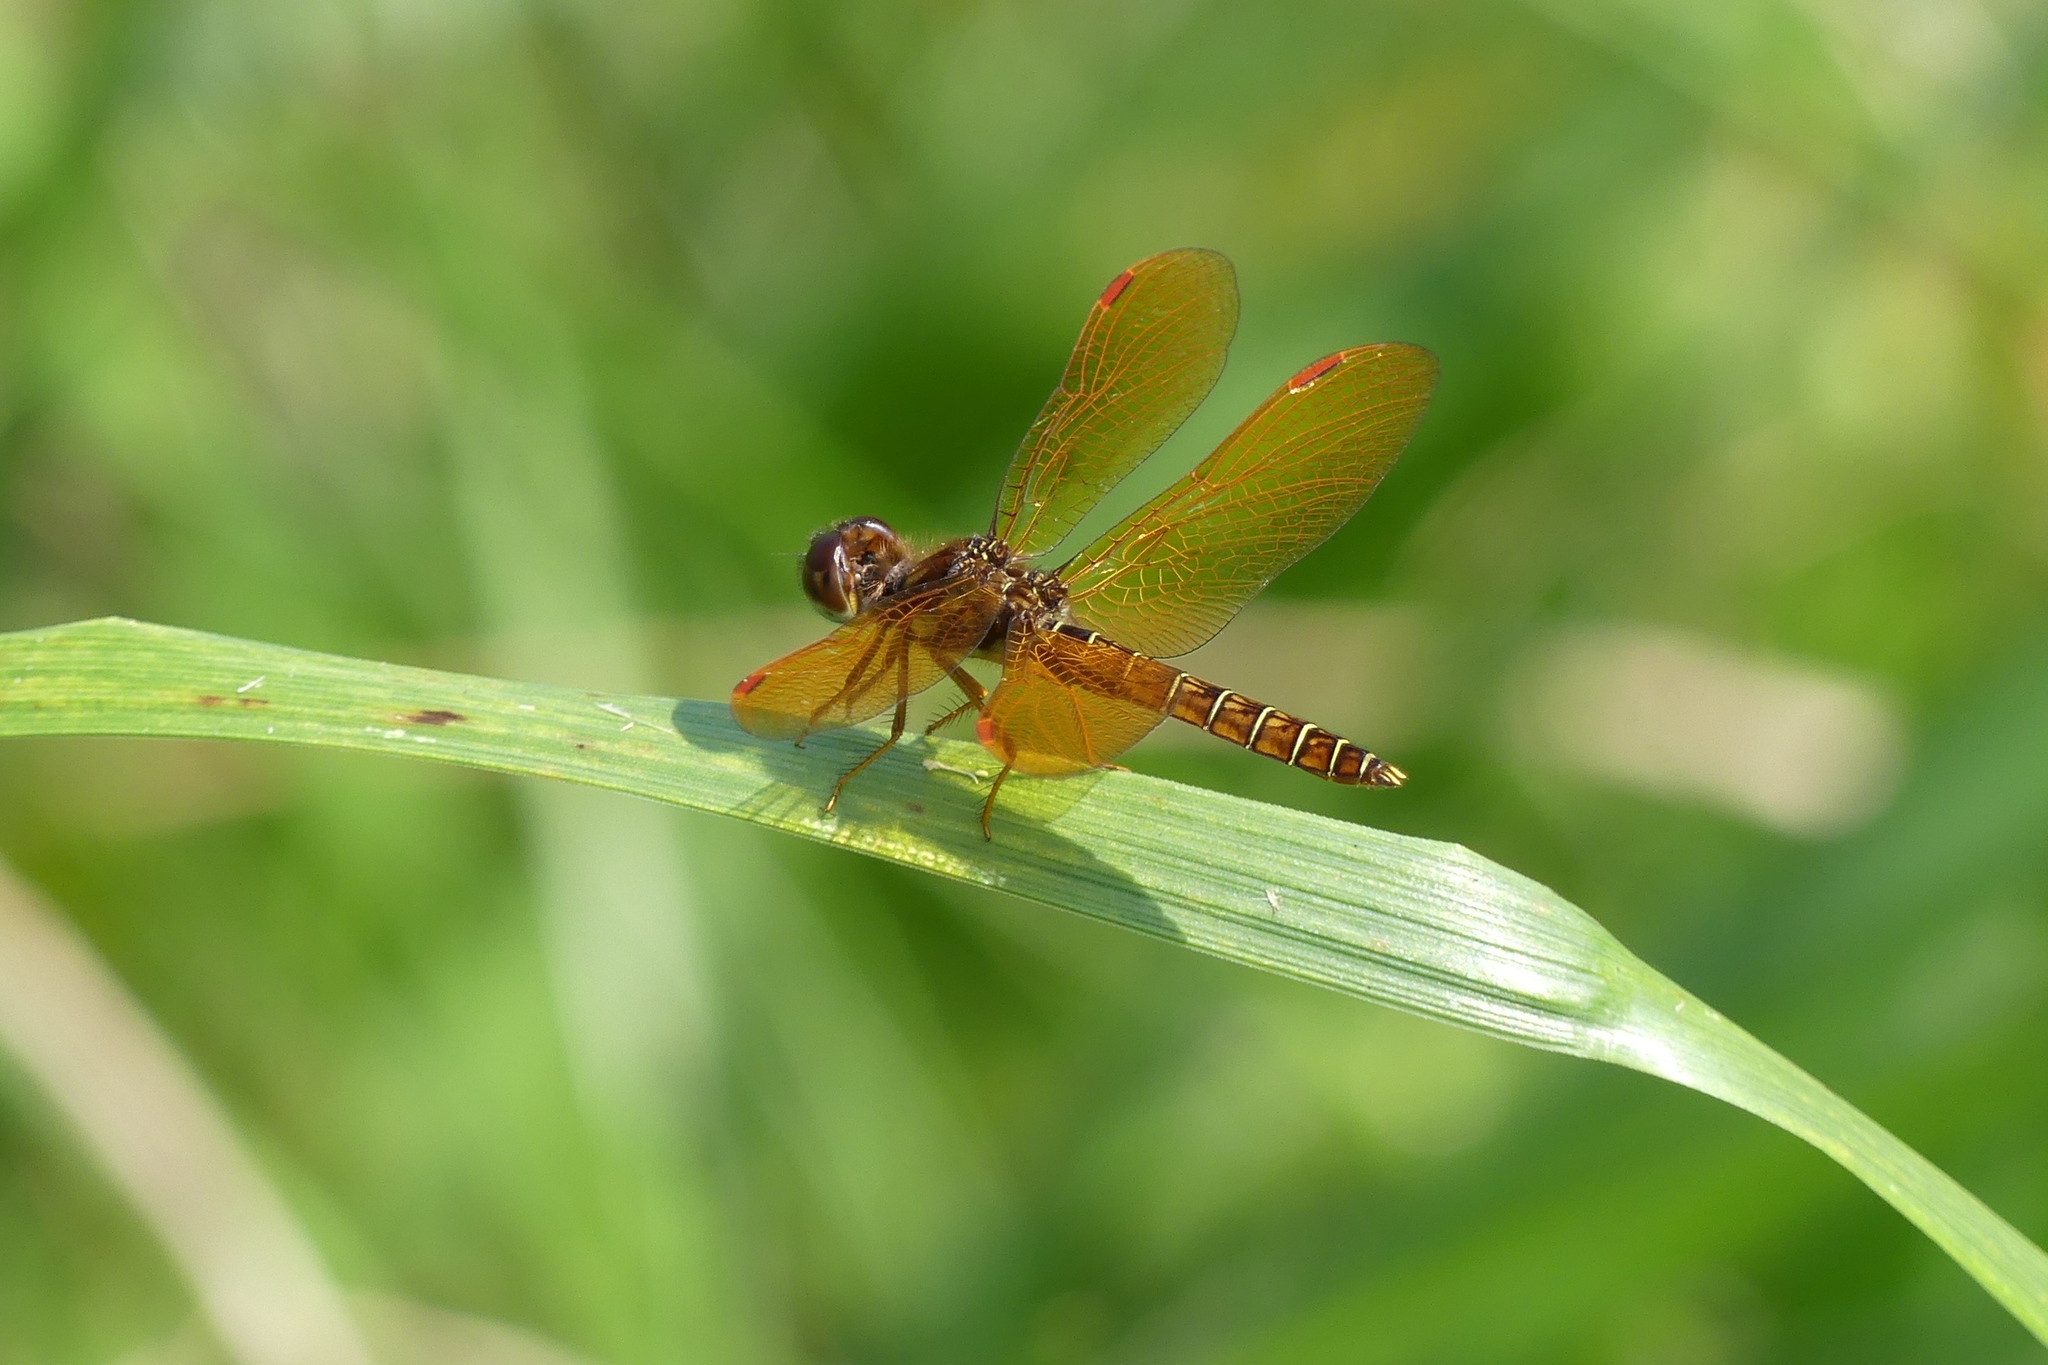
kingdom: Animalia
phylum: Arthropoda
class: Insecta
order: Odonata
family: Libellulidae
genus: Perithemis
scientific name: Perithemis tenera
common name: Eastern amberwing
